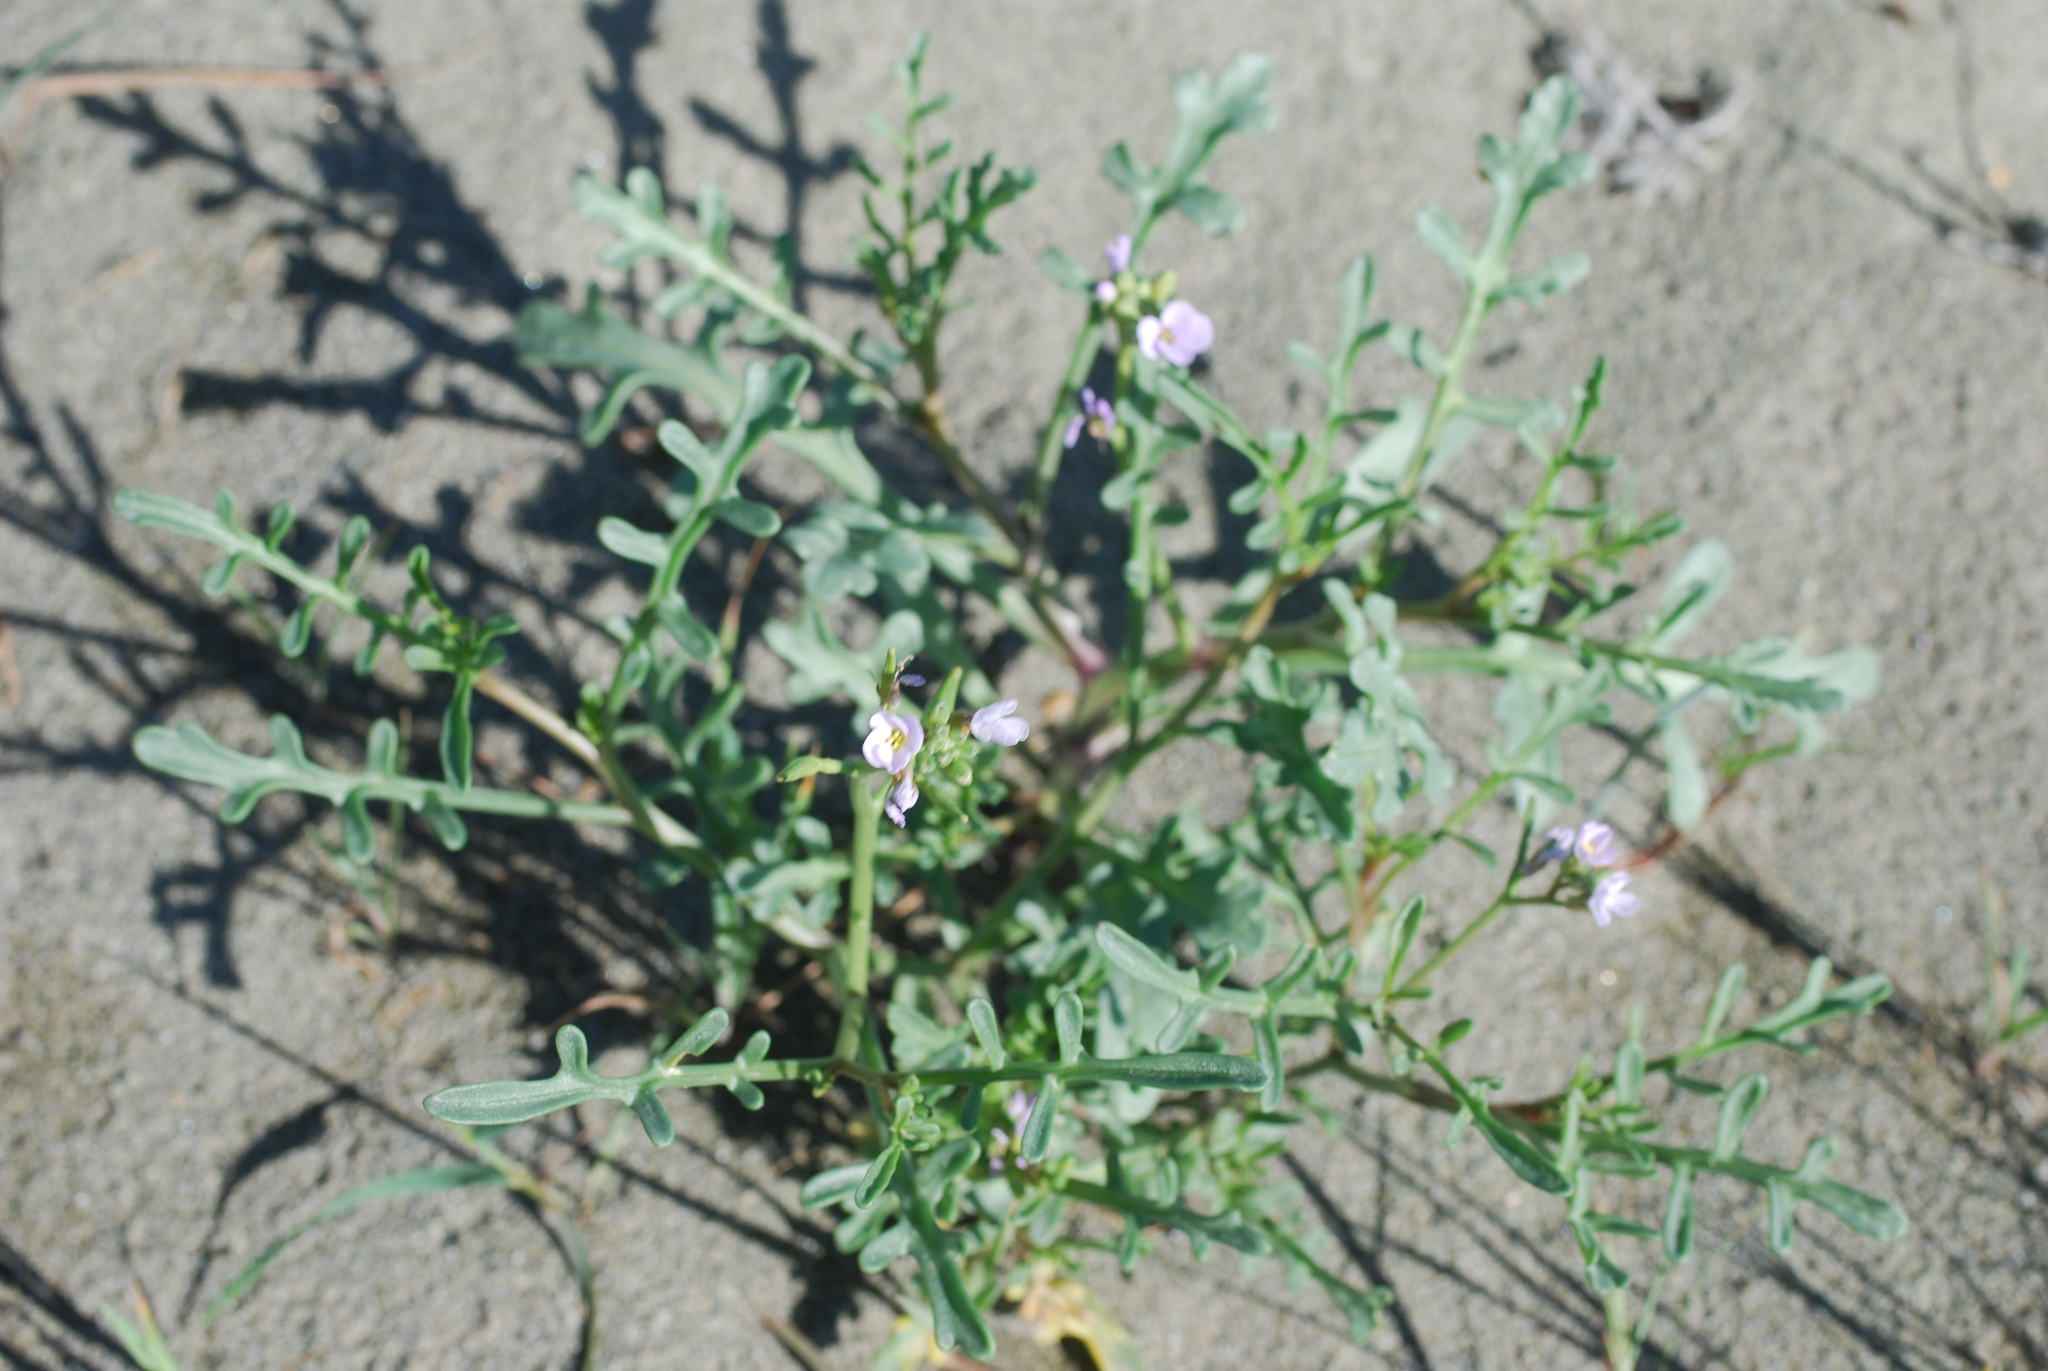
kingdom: Plantae
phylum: Tracheophyta
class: Magnoliopsida
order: Brassicales
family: Brassicaceae
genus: Cakile
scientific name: Cakile maritima
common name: Sea rocket
